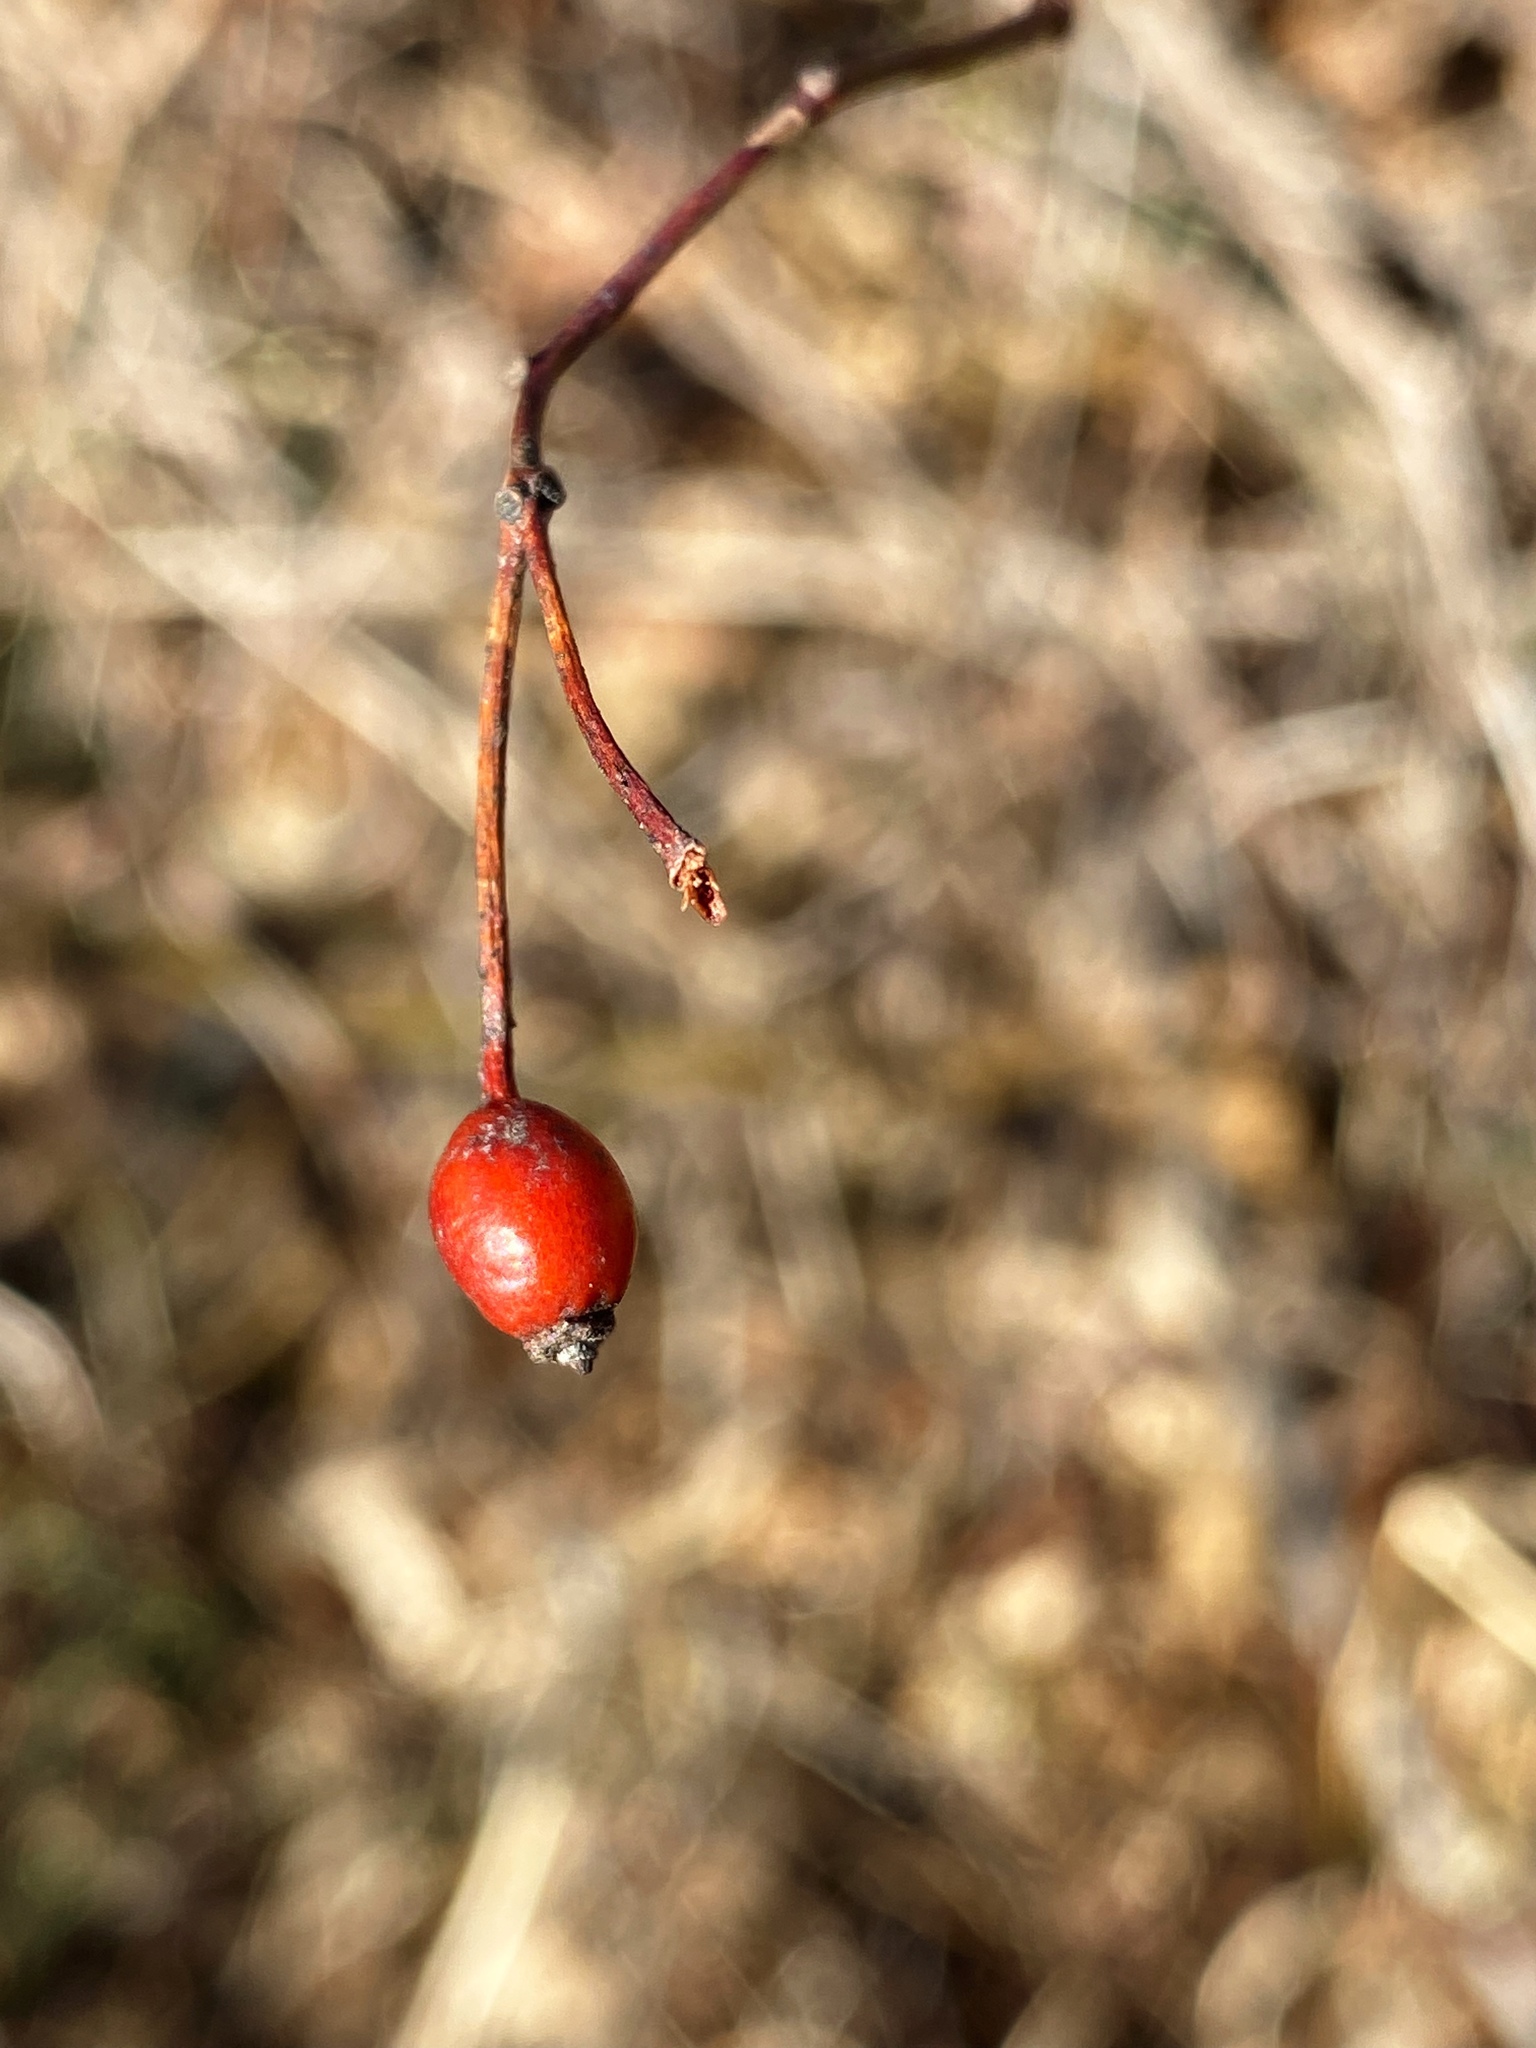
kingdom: Plantae
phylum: Tracheophyta
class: Magnoliopsida
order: Rosales
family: Rosaceae
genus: Rosa
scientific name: Rosa multiflora
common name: Multiflora rose
